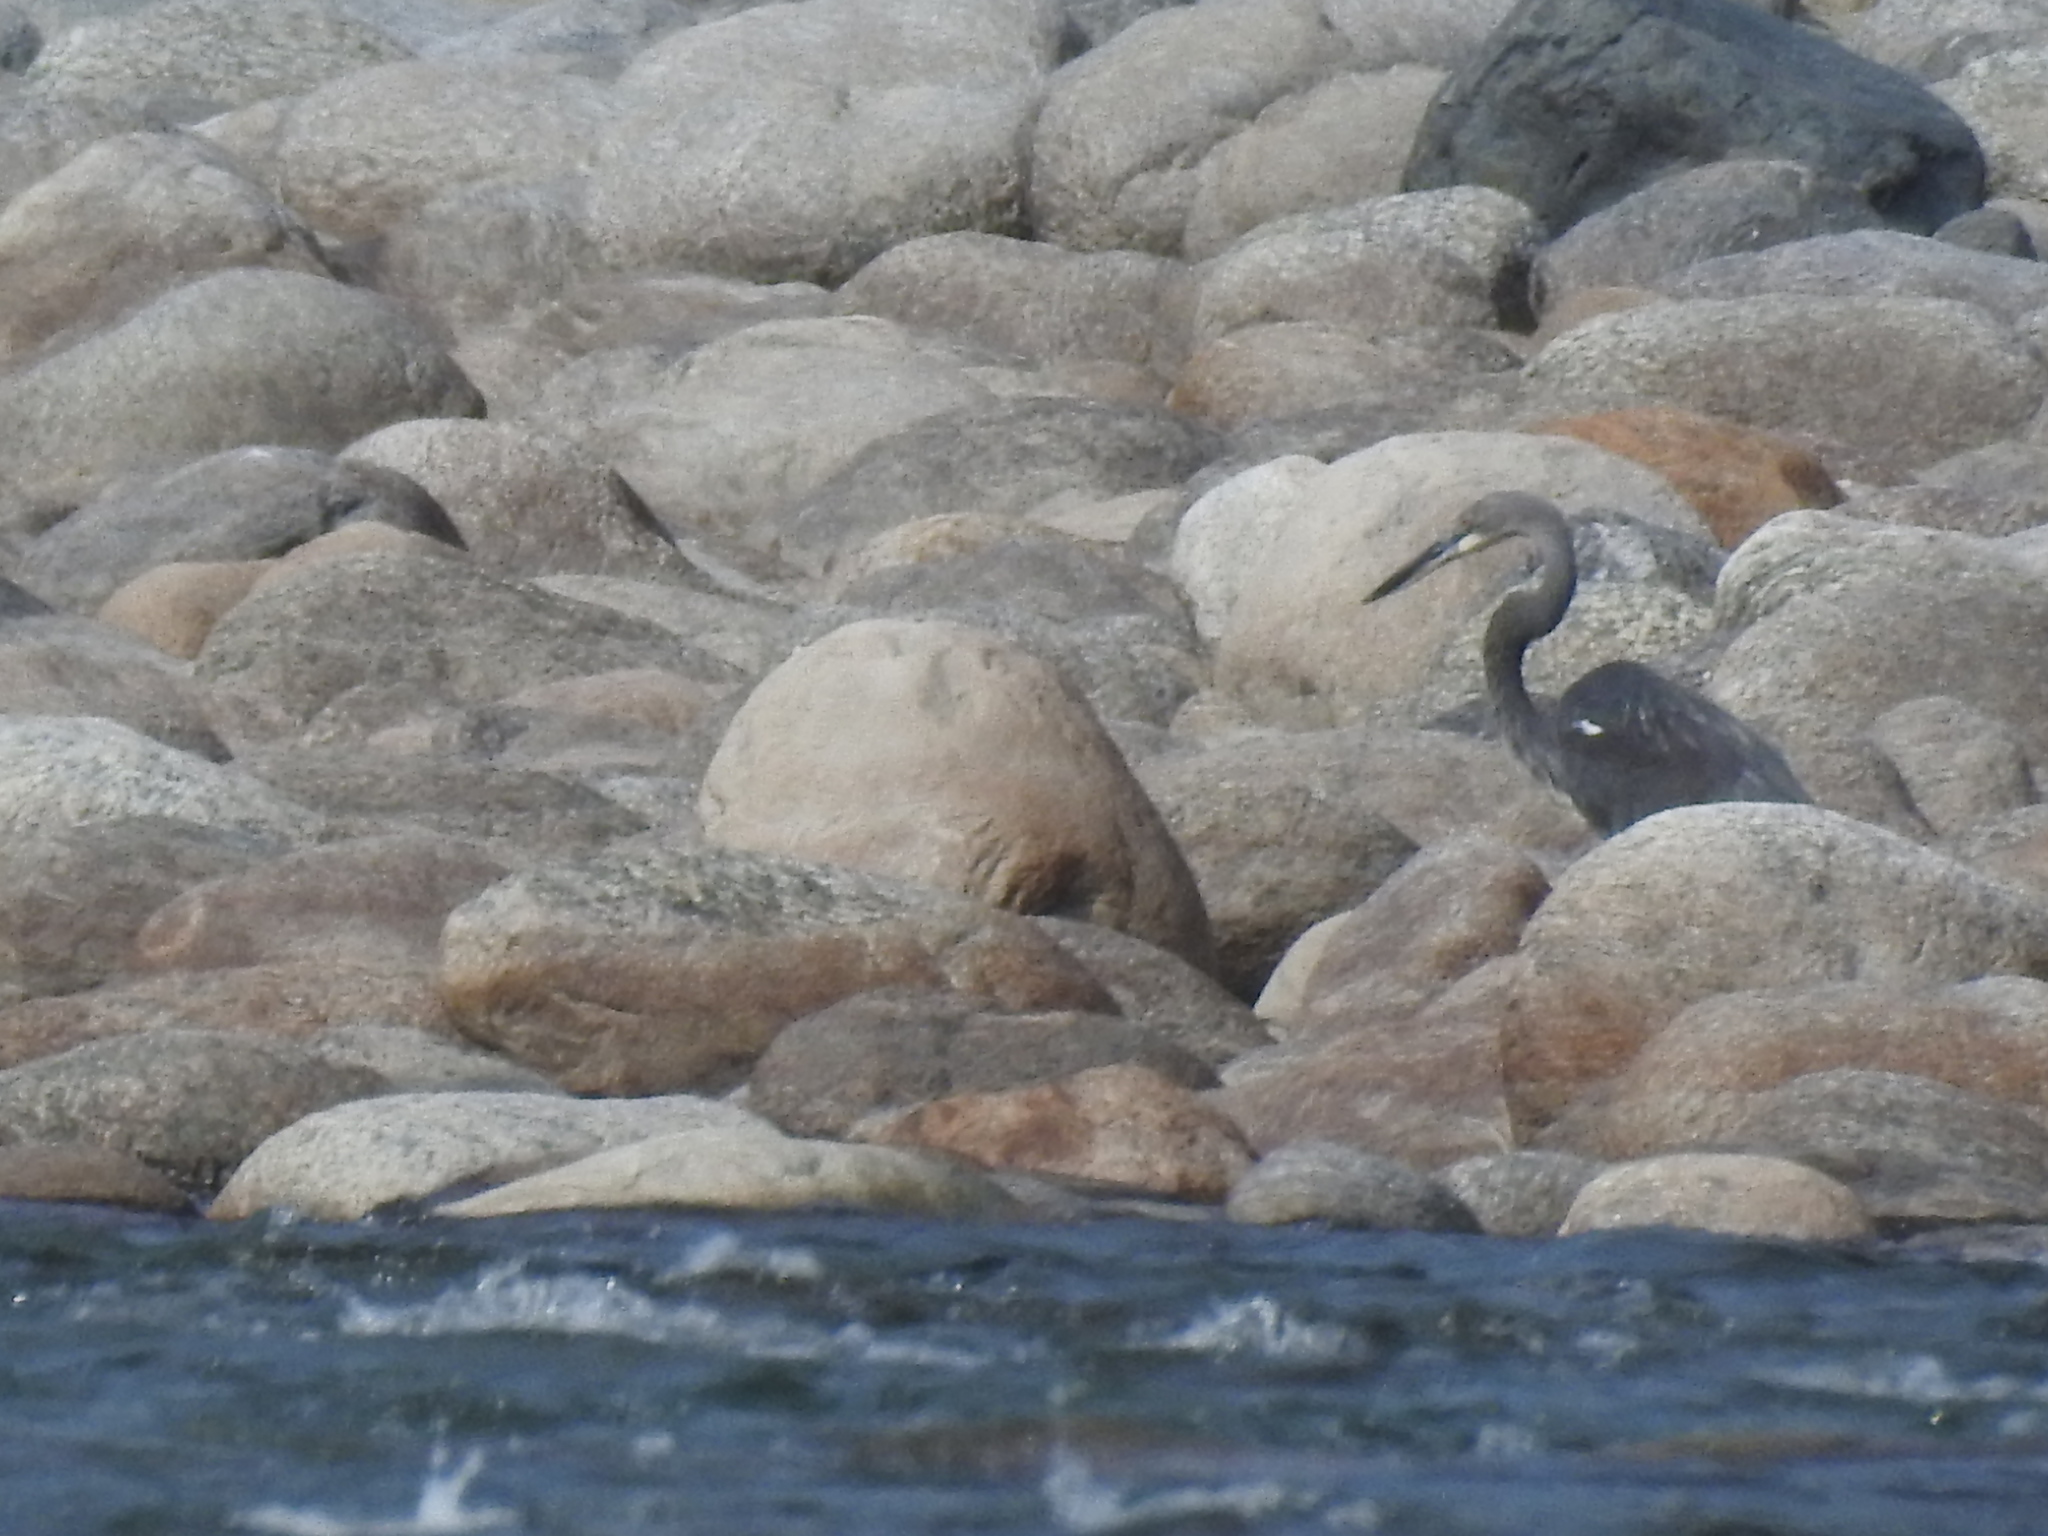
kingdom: Animalia
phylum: Chordata
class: Aves
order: Pelecaniformes
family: Ardeidae
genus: Ardea
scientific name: Ardea insignis
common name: White-bellied heron
